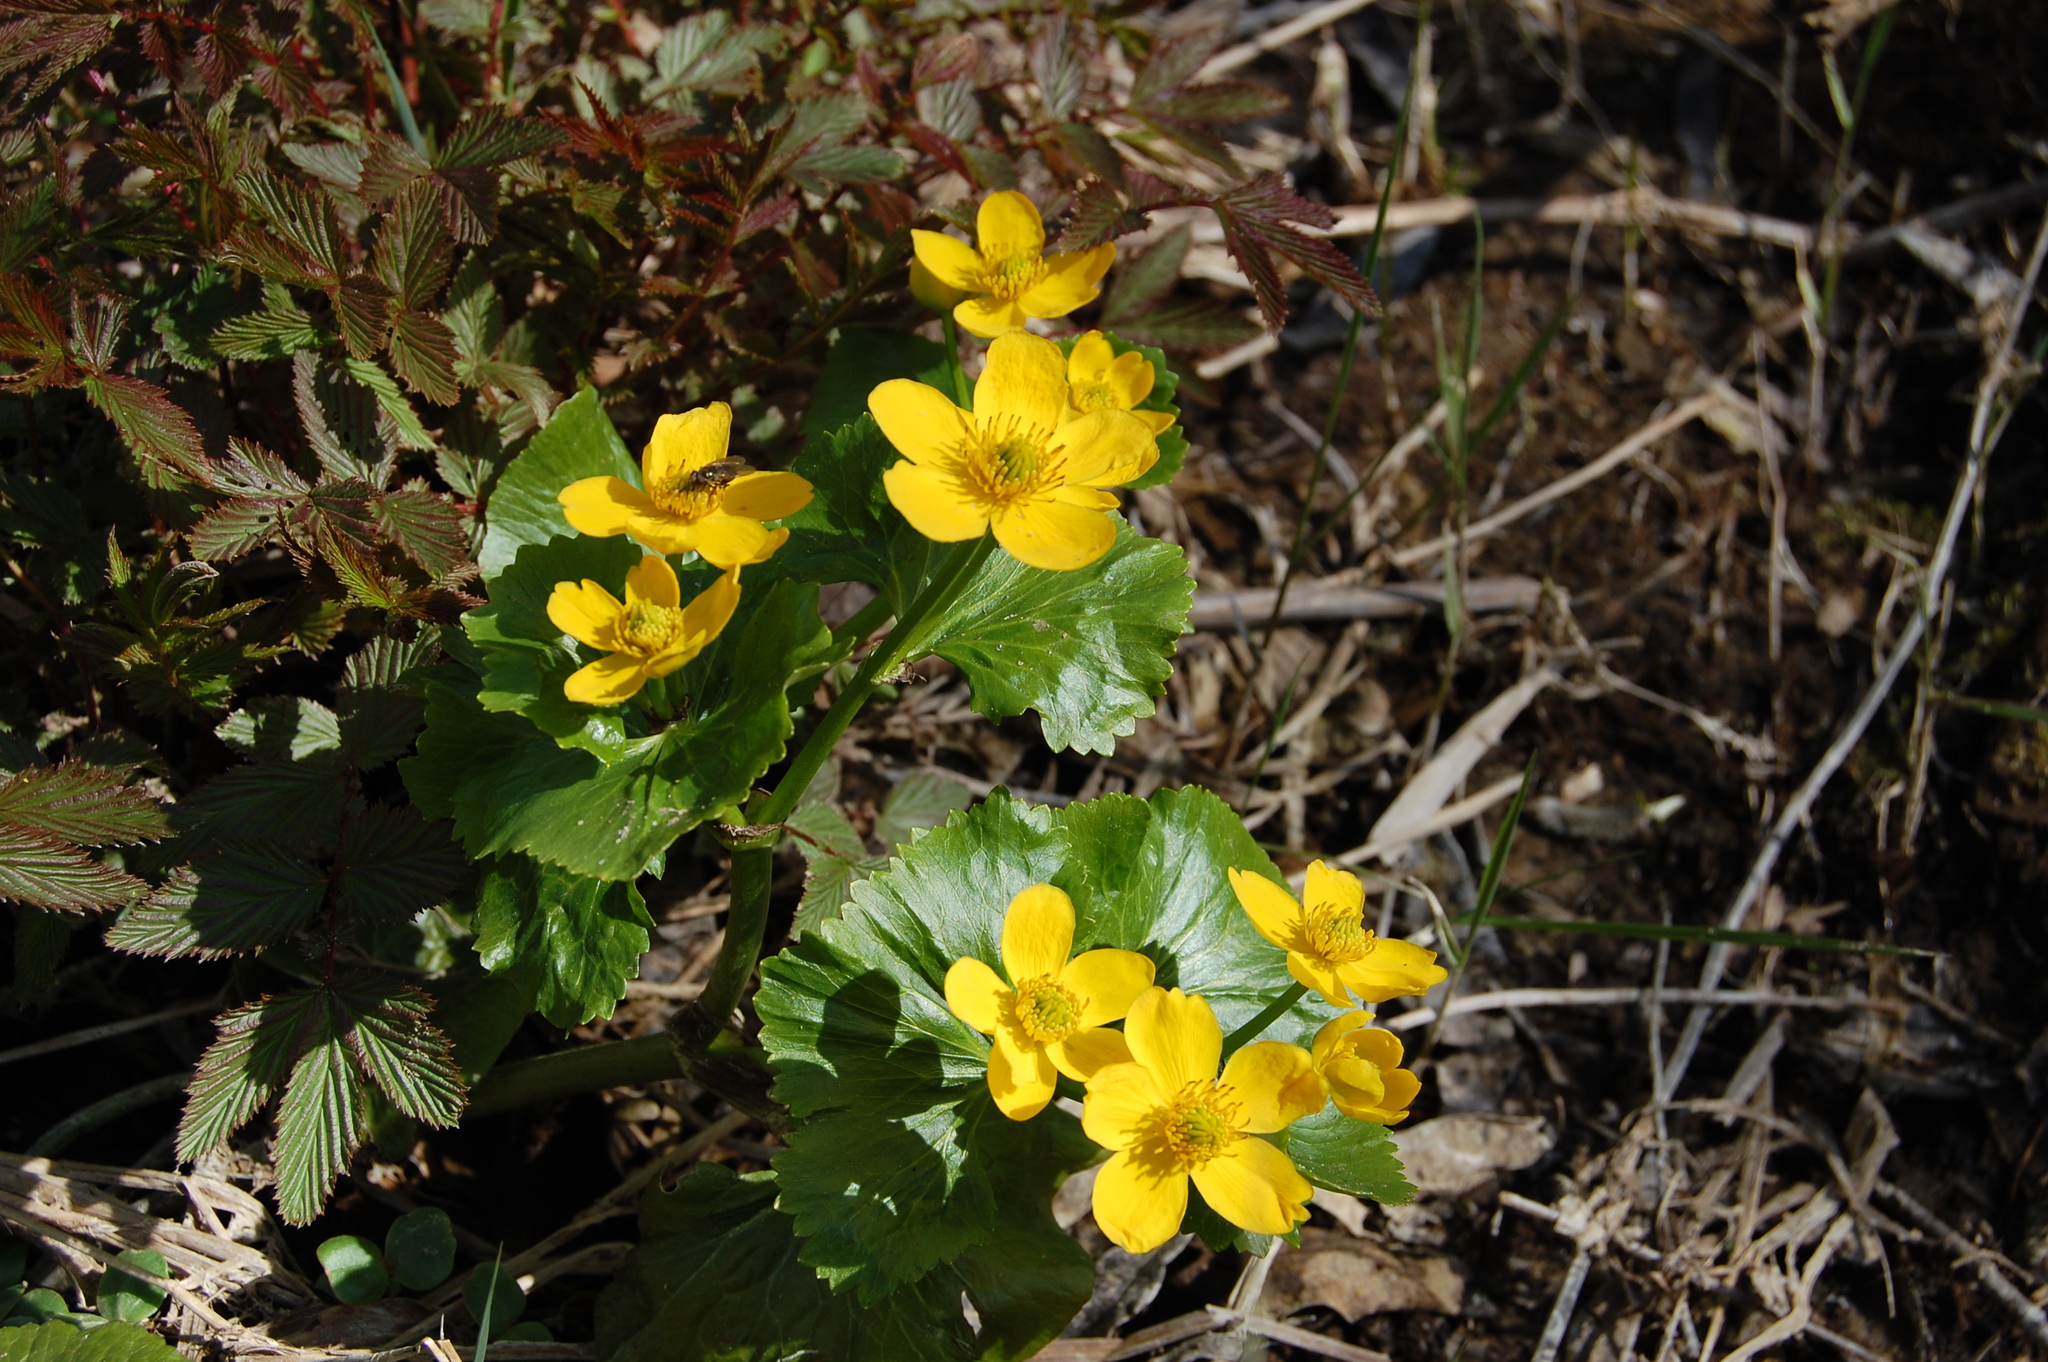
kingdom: Plantae
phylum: Tracheophyta
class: Magnoliopsida
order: Ranunculales
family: Ranunculaceae
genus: Caltha
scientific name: Caltha palustris
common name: Marsh marigold
